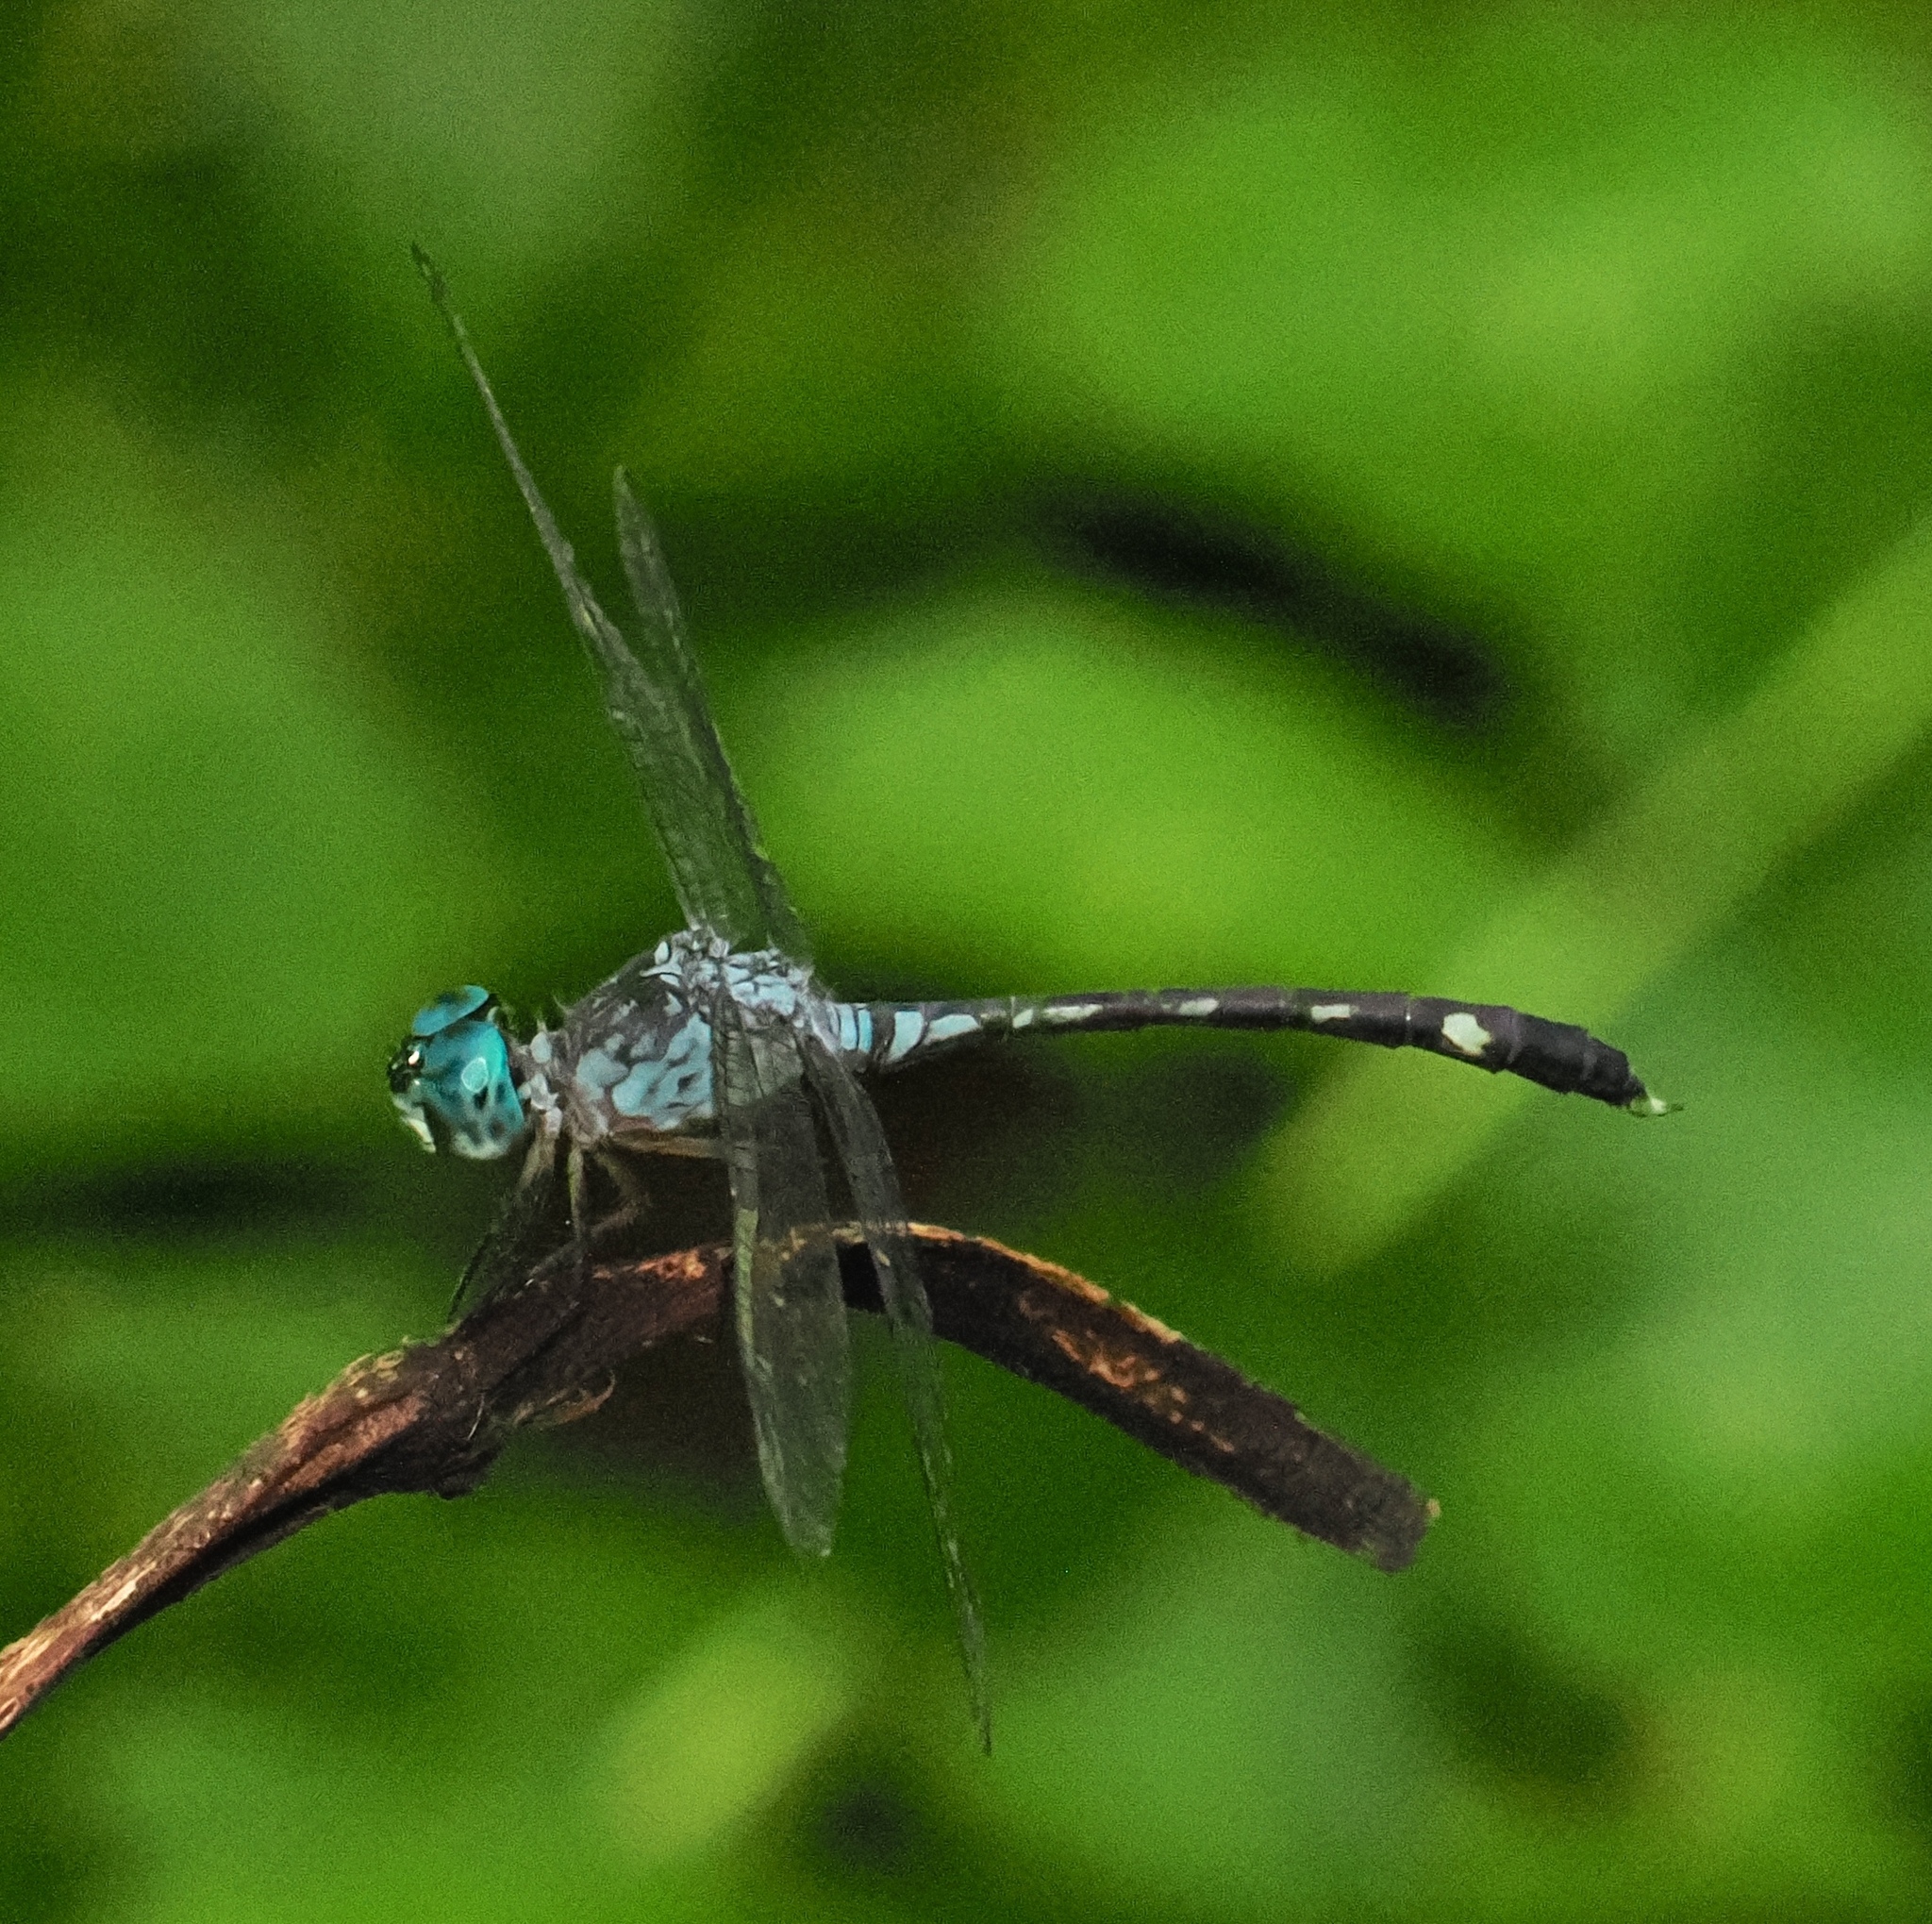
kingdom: Animalia
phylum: Arthropoda
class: Insecta
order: Odonata
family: Libellulidae
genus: Anatya
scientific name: Anatya januaria
